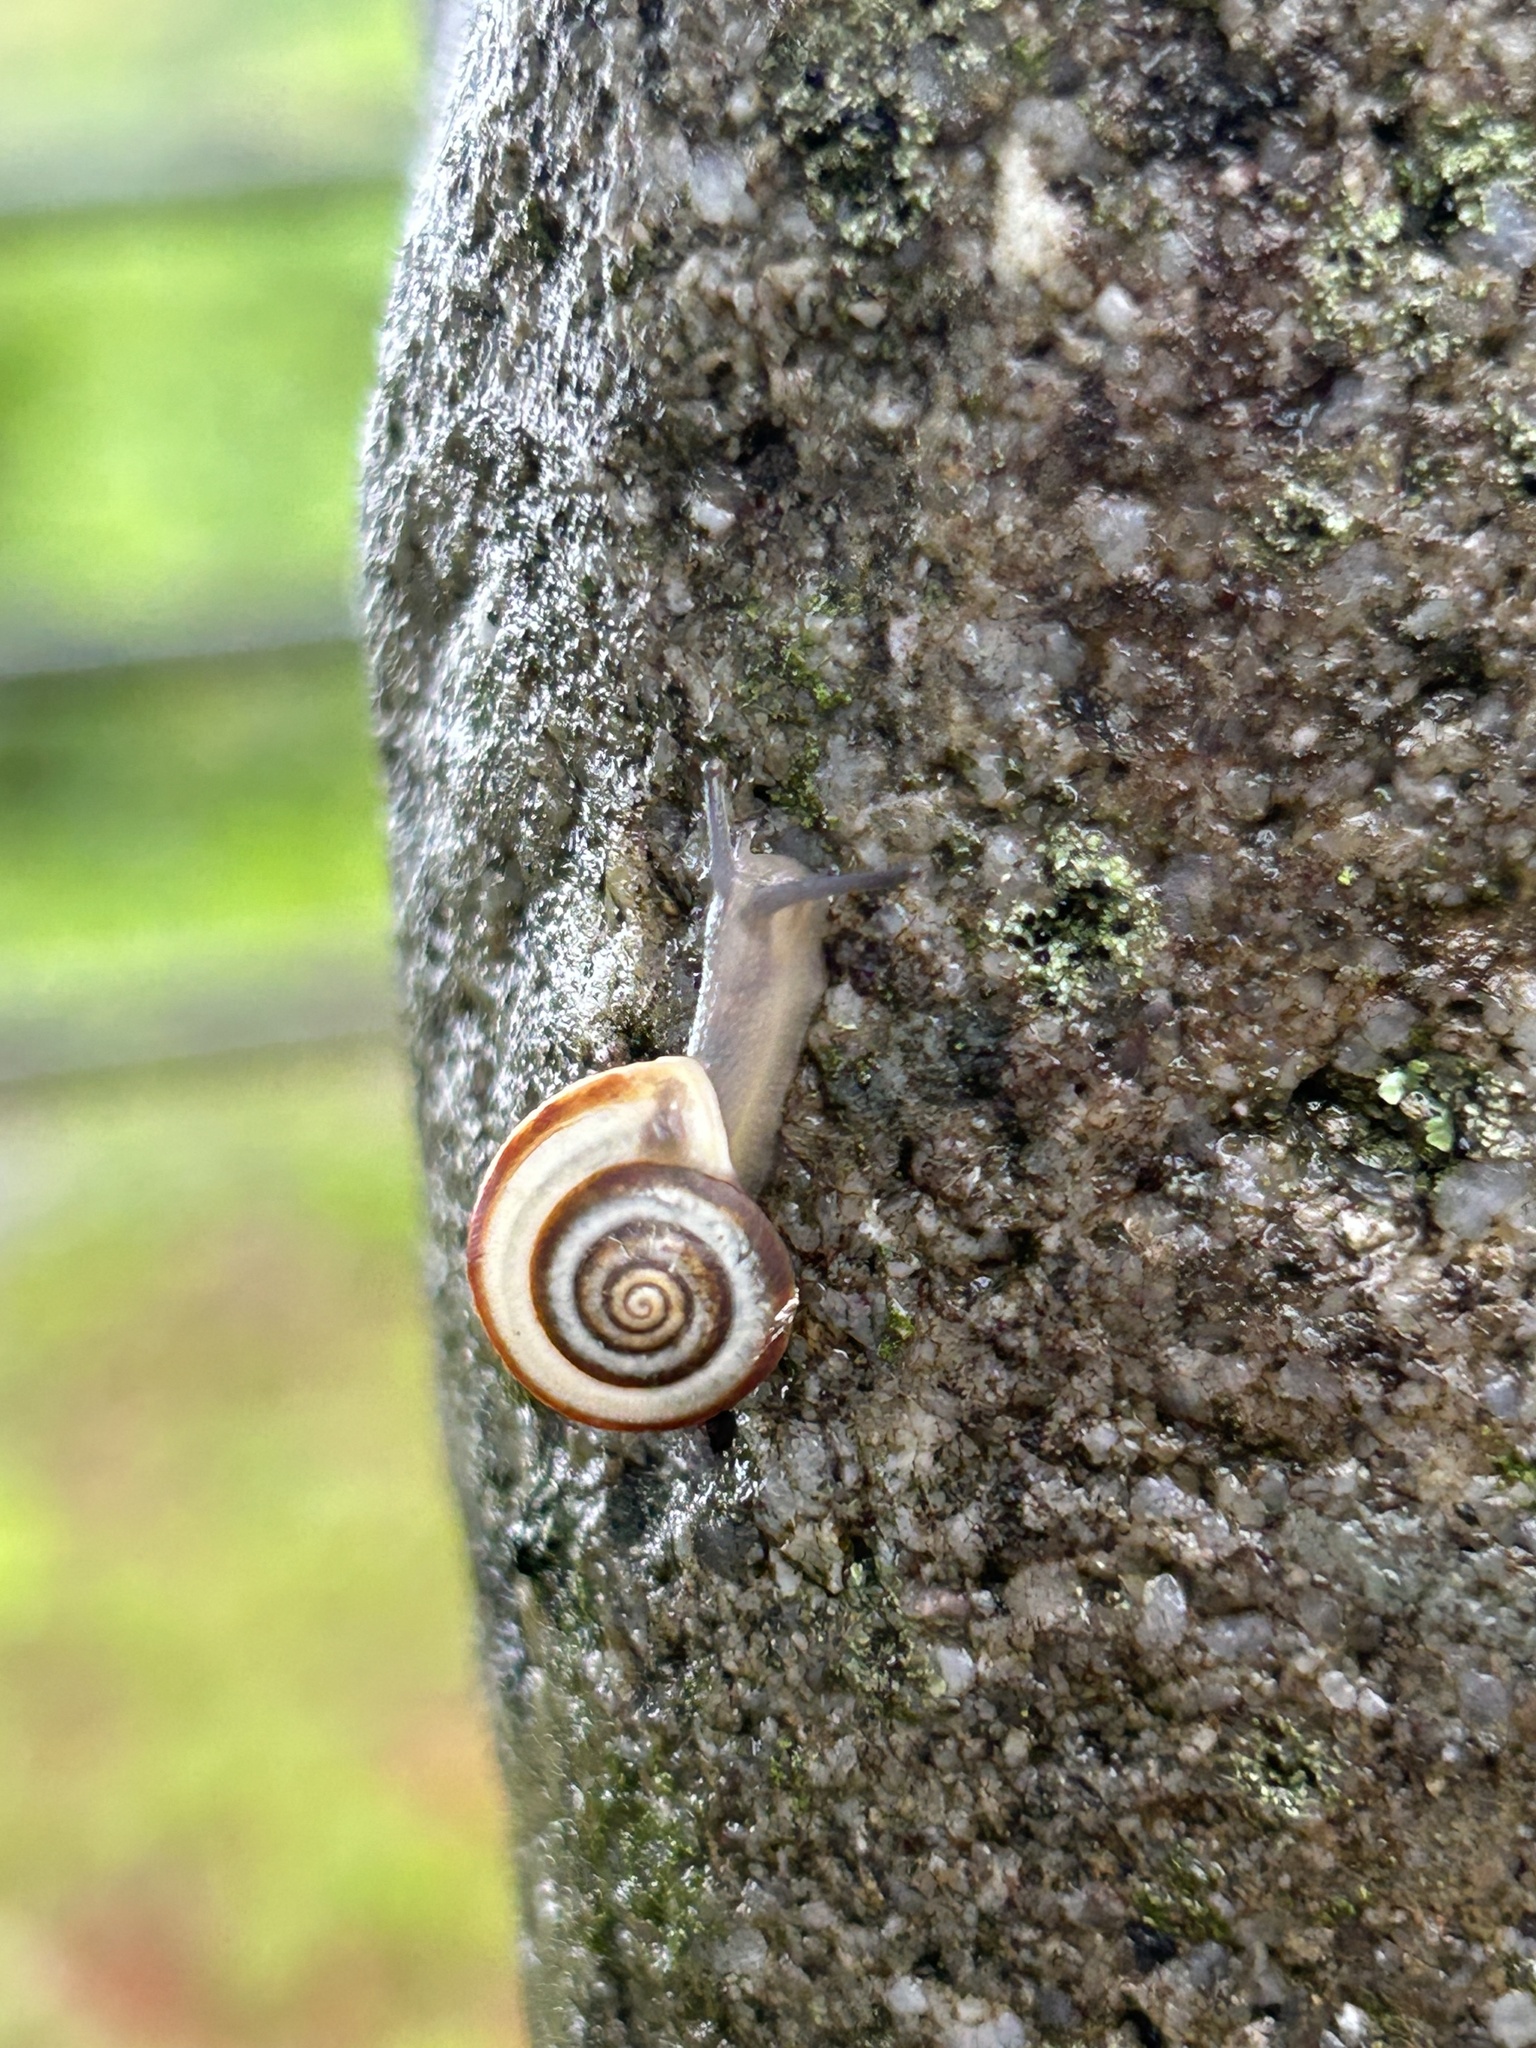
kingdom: Animalia
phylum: Mollusca
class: Gastropoda
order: Stylommatophora
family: Camaenidae
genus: Aegista
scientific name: Aegista
